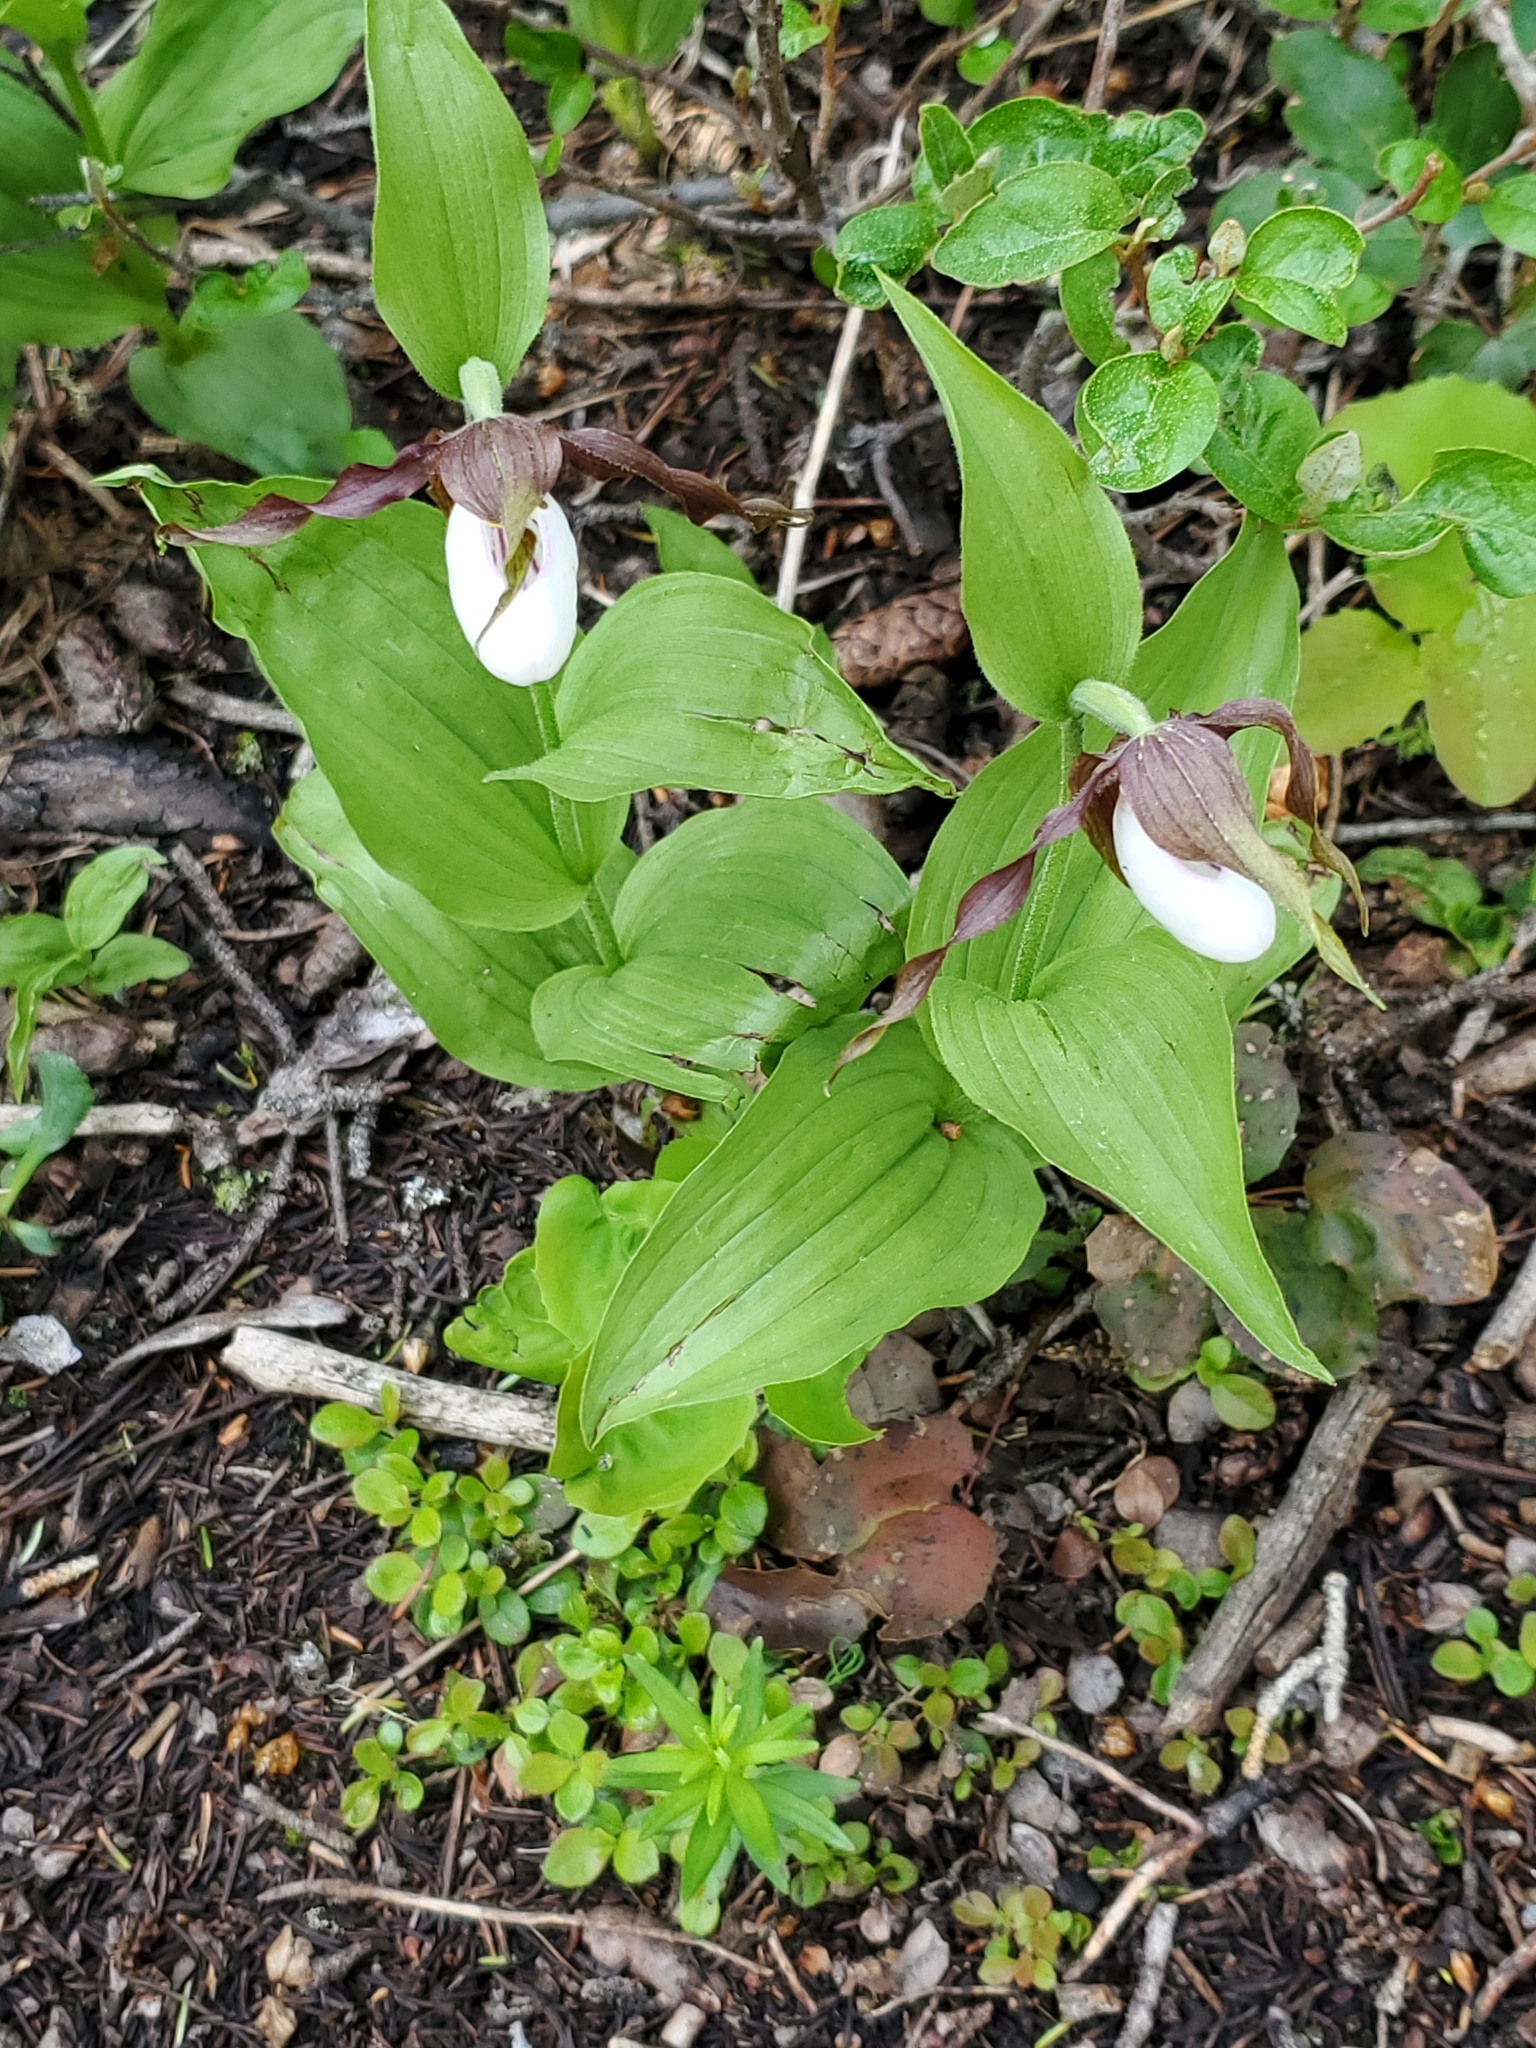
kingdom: Plantae
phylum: Tracheophyta
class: Liliopsida
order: Asparagales
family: Orchidaceae
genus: Cypripedium
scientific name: Cypripedium montanum
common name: Mountain lady's-slipper
